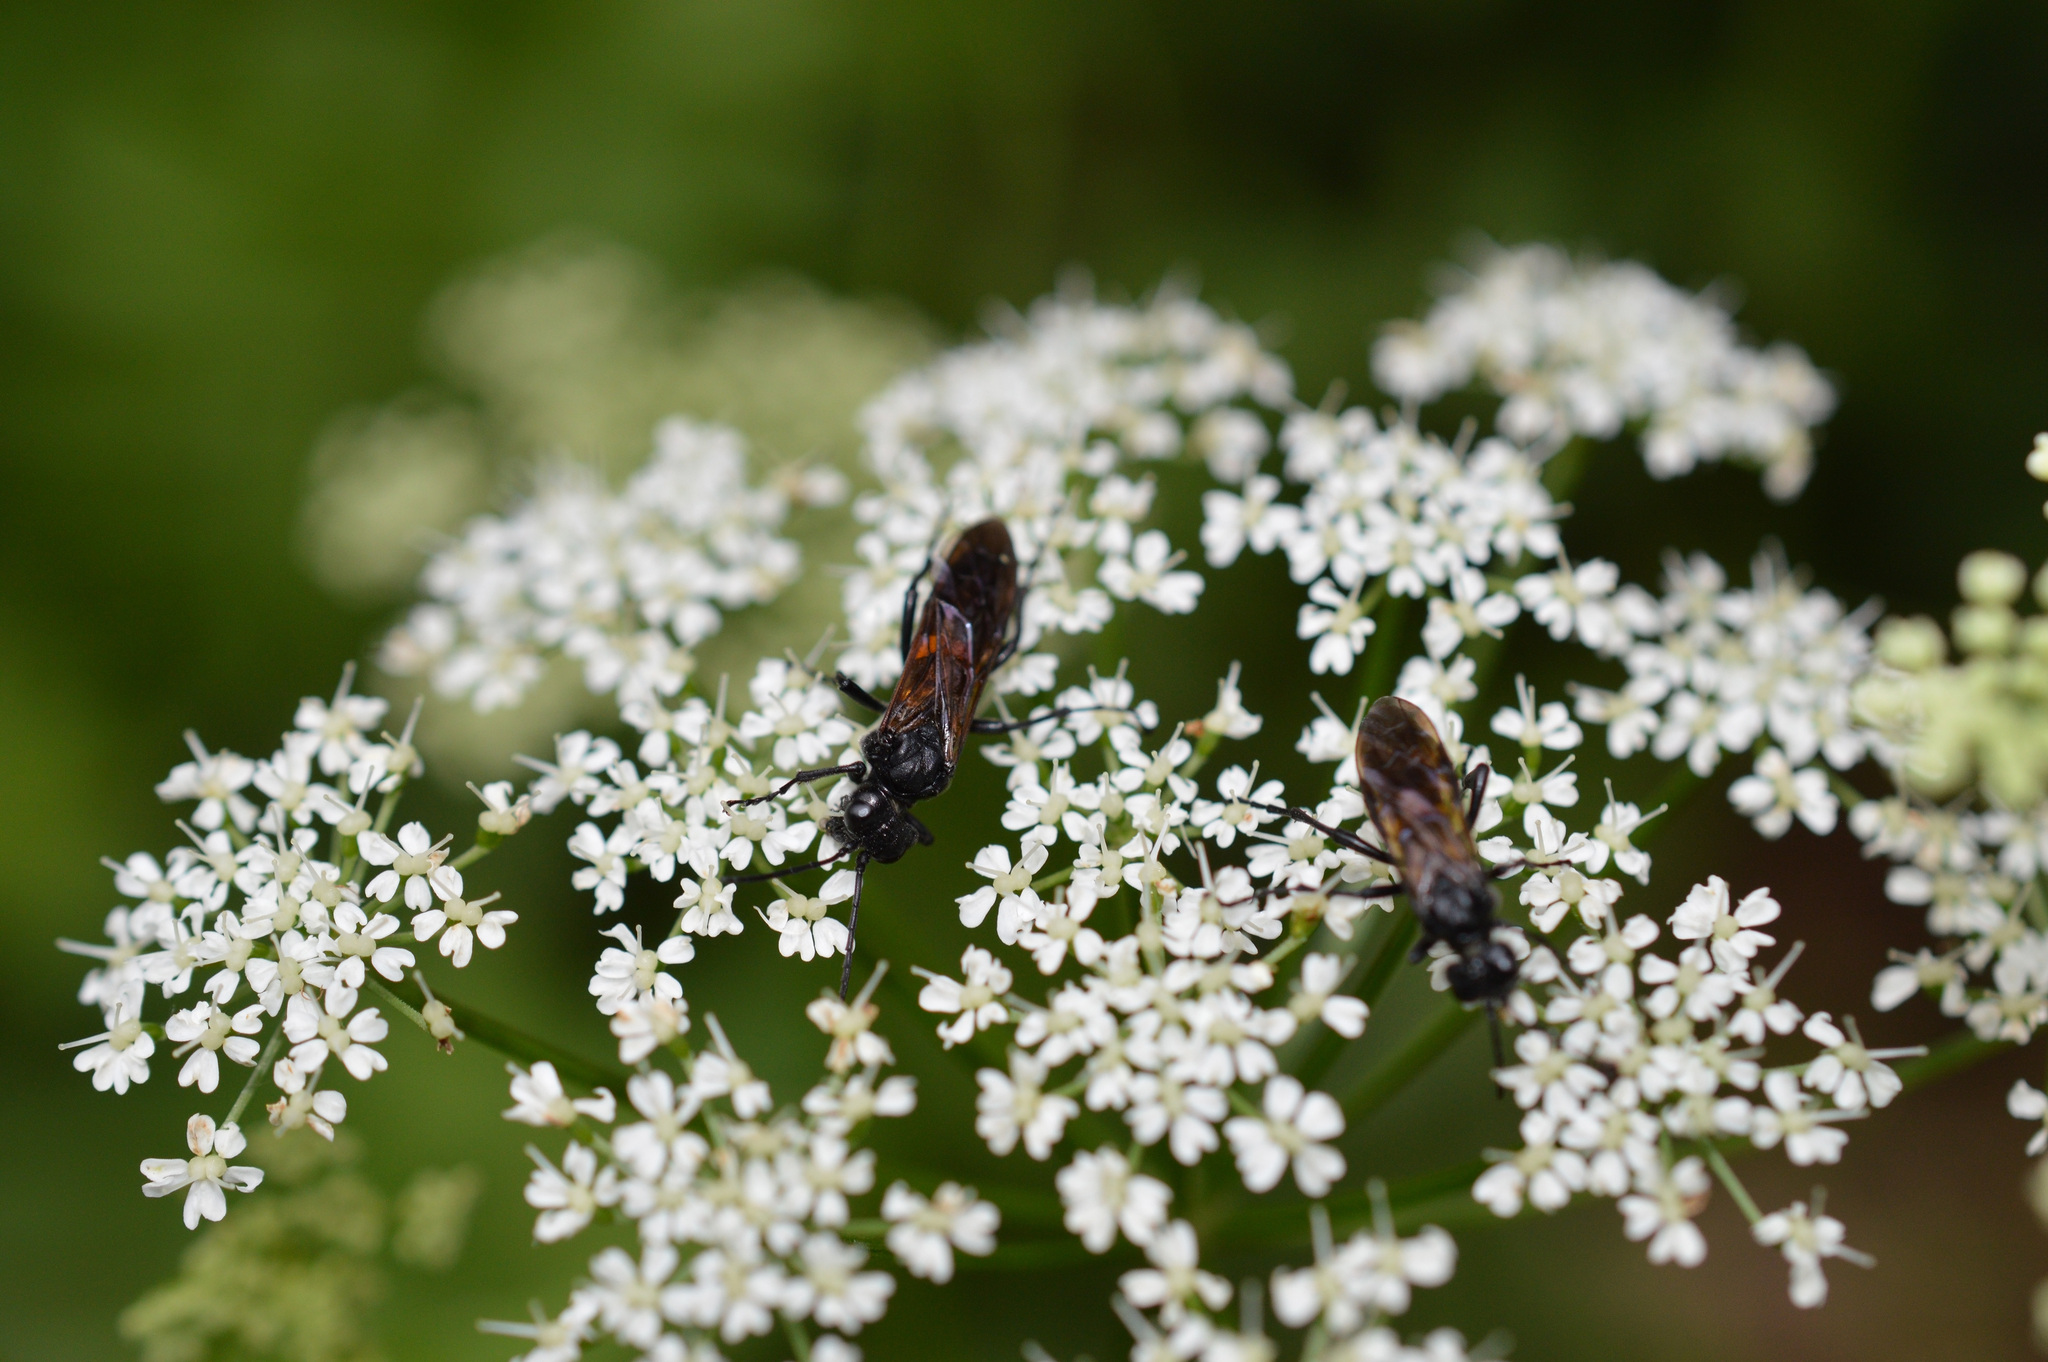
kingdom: Animalia
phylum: Arthropoda
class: Insecta
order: Hymenoptera
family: Tenthredinidae
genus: Tenthredo
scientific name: Tenthredo caucasica
